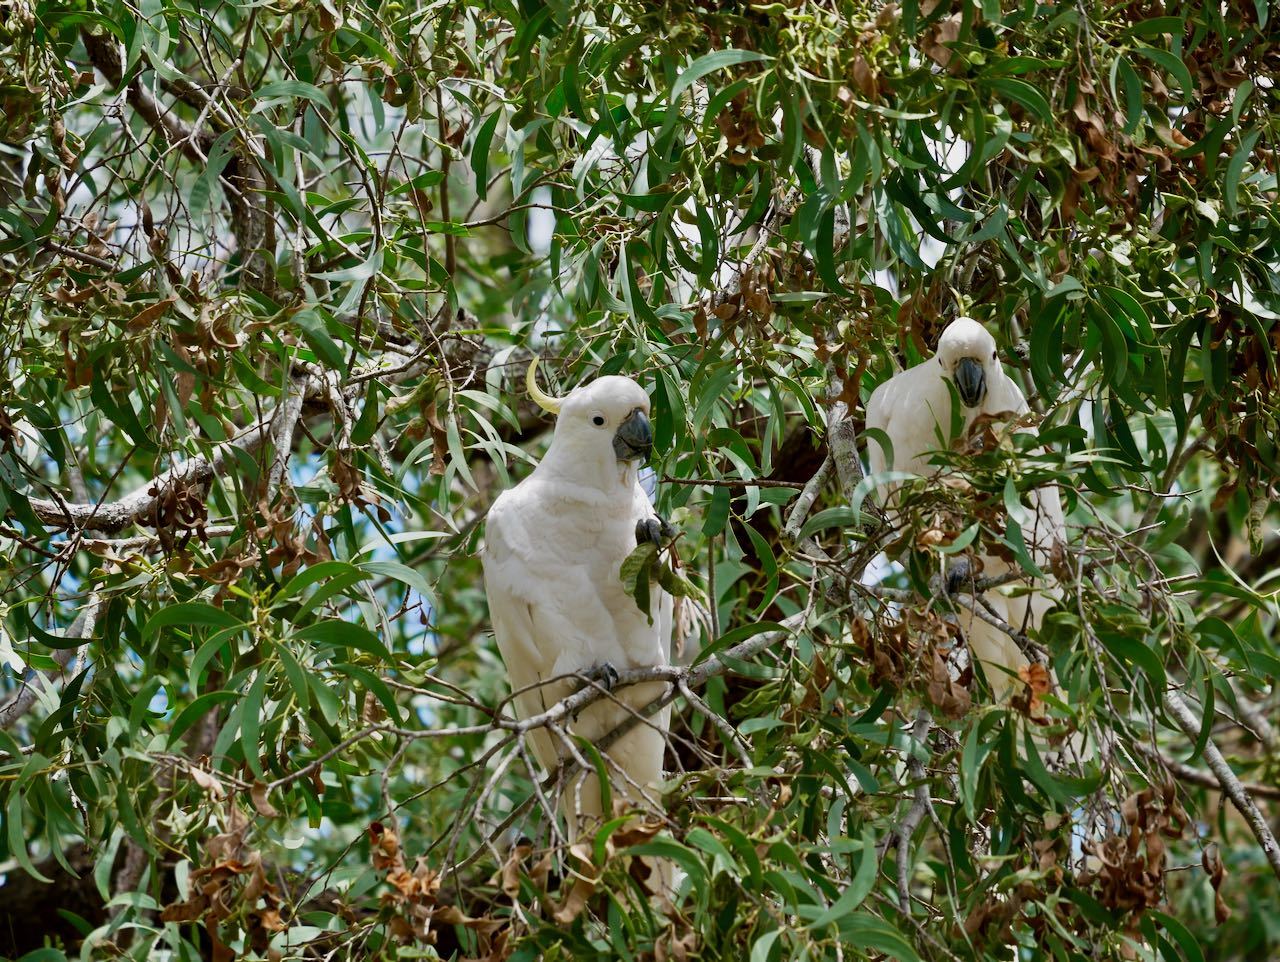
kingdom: Animalia
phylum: Chordata
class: Aves
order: Psittaciformes
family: Psittacidae
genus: Cacatua
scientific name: Cacatua galerita
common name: Sulphur-crested cockatoo
